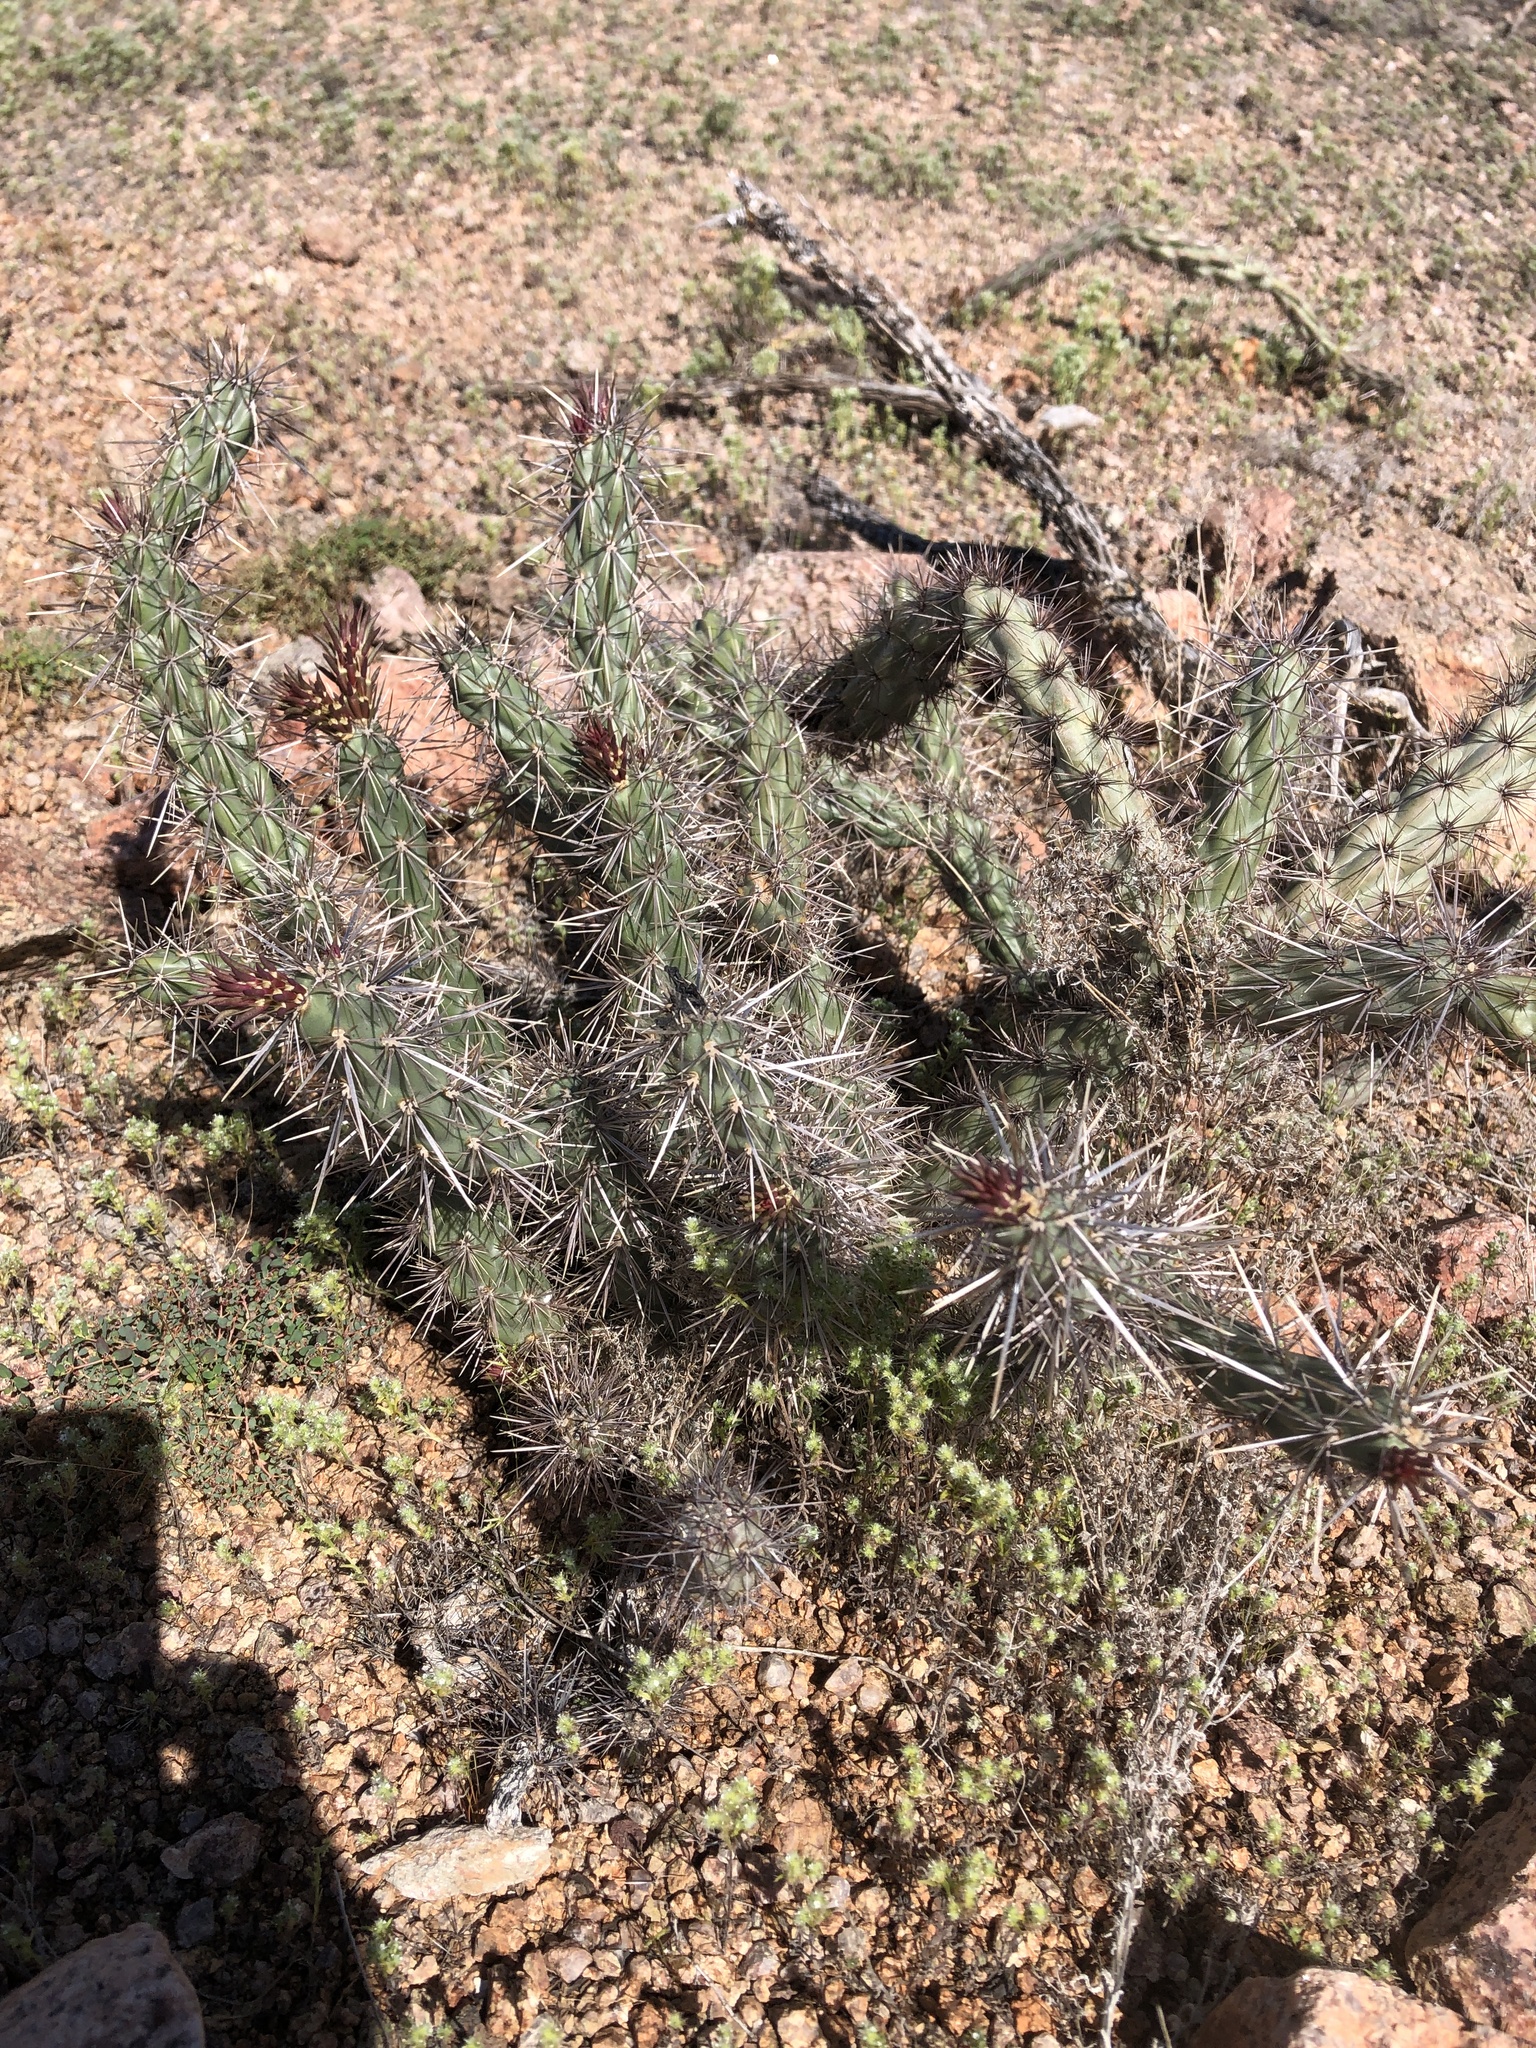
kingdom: Plantae
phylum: Tracheophyta
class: Magnoliopsida
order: Caryophyllales
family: Cactaceae
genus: Cylindropuntia
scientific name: Cylindropuntia acanthocarpa
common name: Buckhorn cholla
